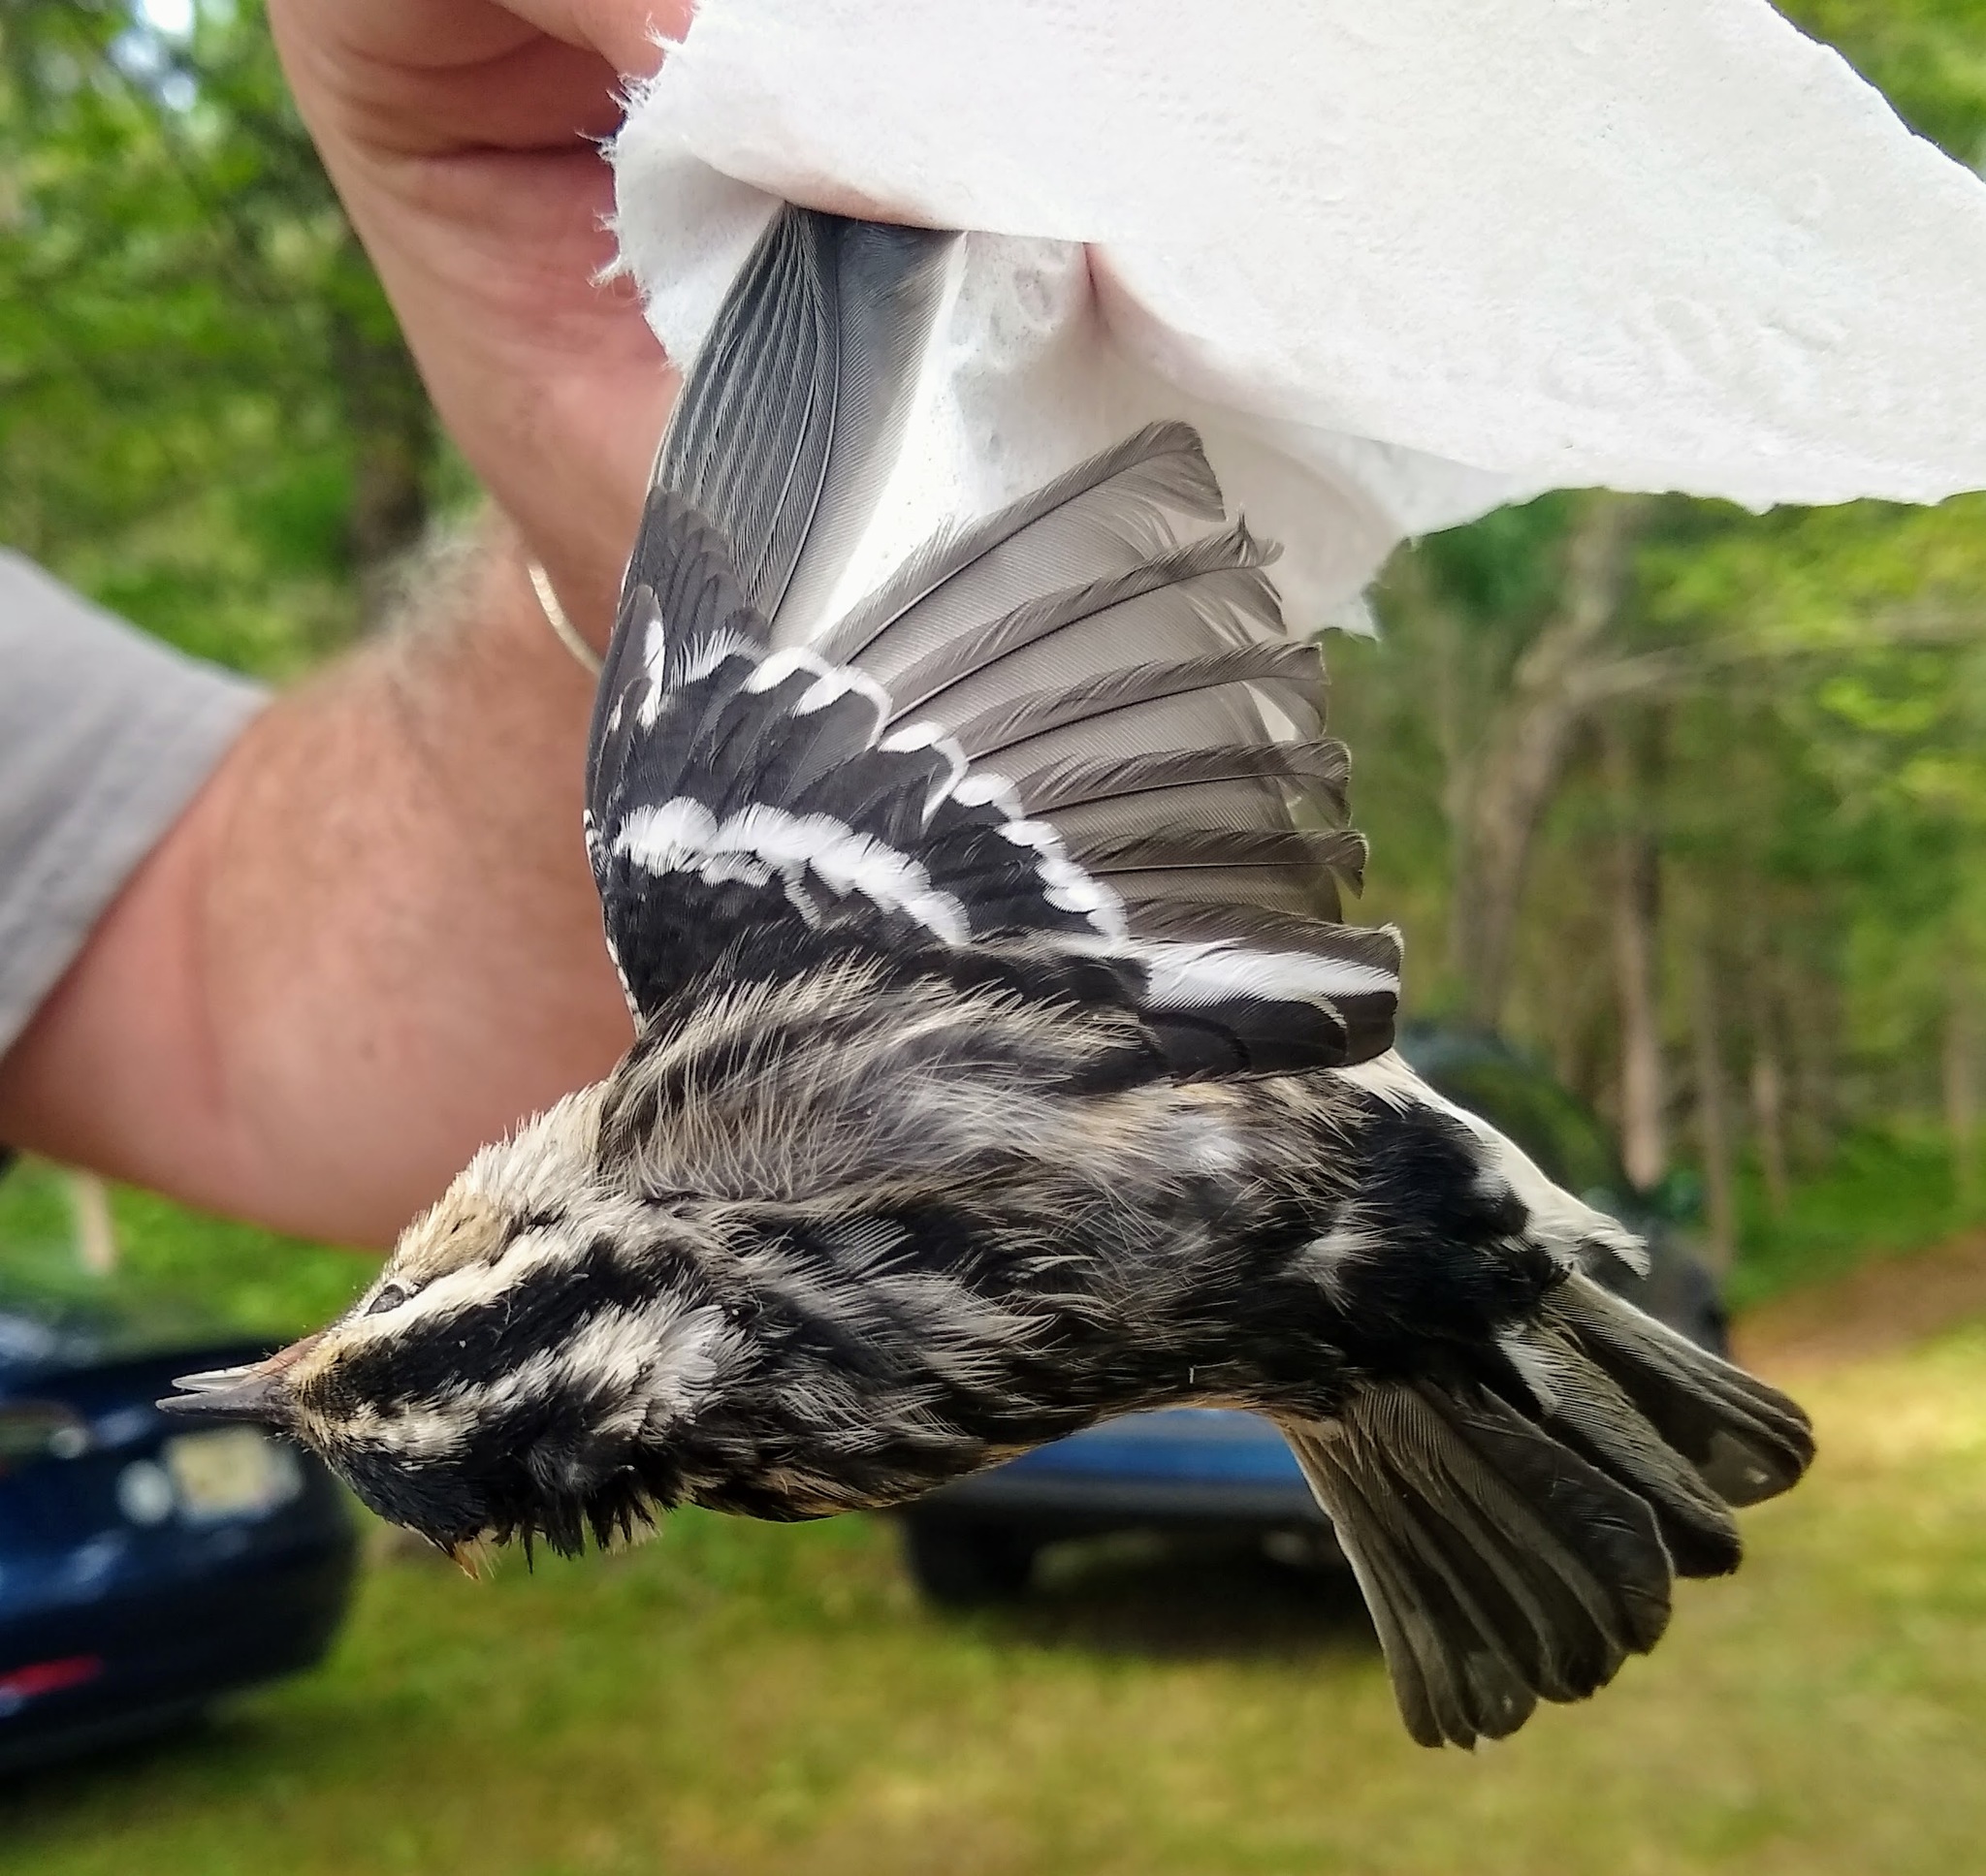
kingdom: Animalia
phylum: Chordata
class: Aves
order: Passeriformes
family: Parulidae
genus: Mniotilta
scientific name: Mniotilta varia
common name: Black-and-white warbler
